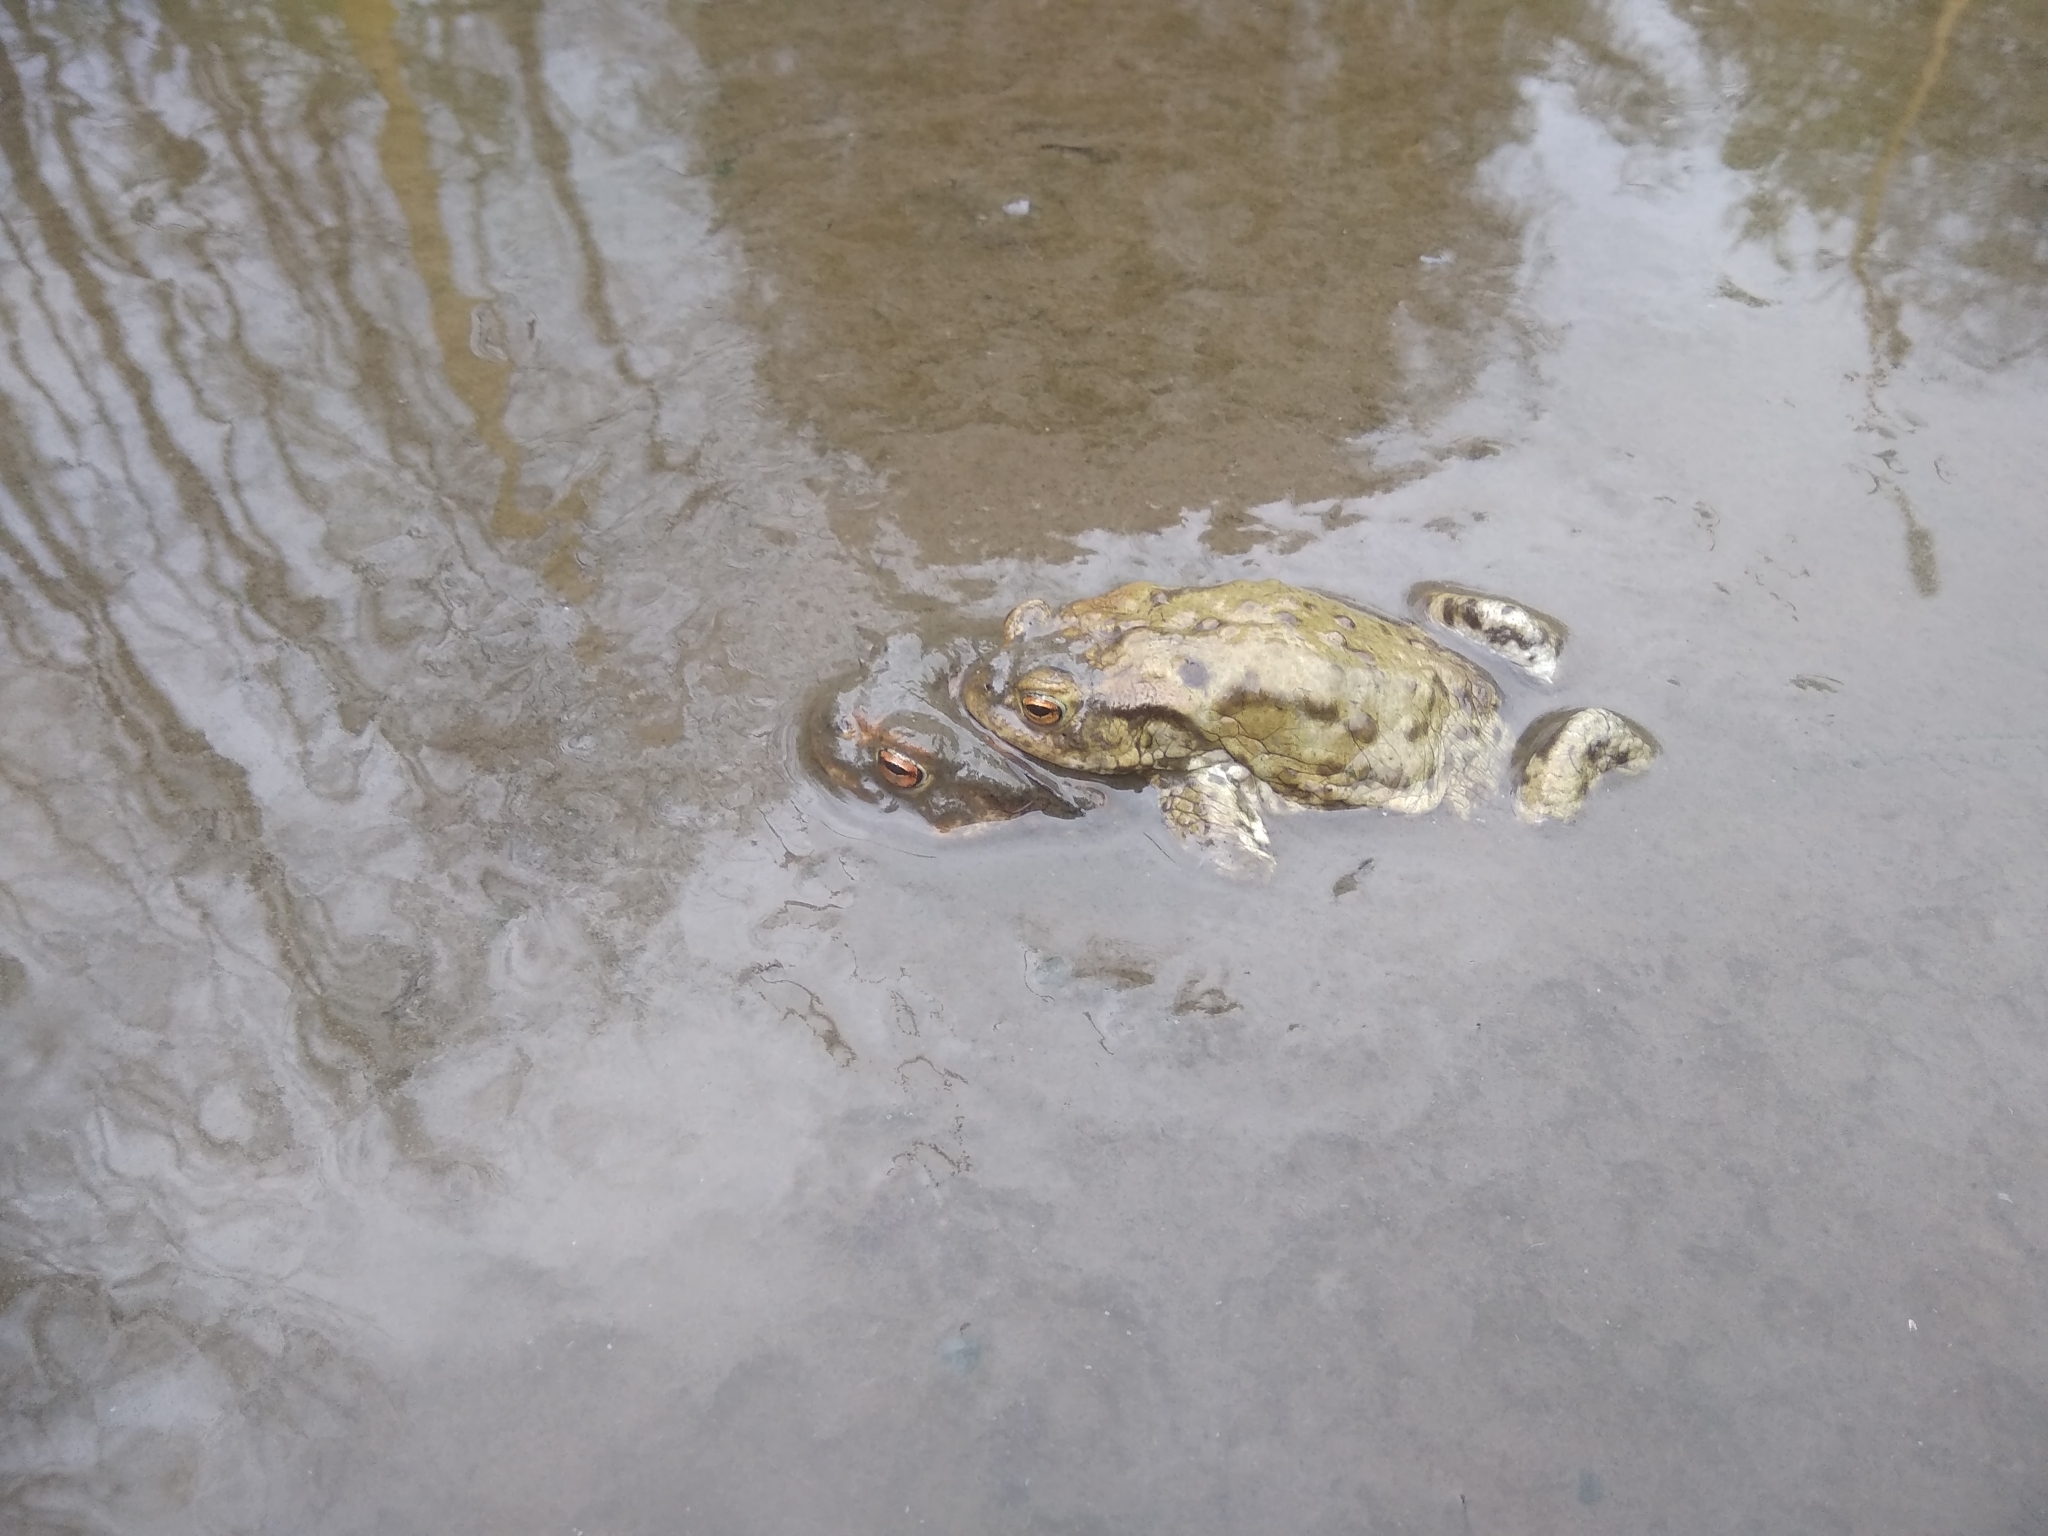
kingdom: Animalia
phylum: Chordata
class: Amphibia
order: Anura
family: Bufonidae
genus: Bufo
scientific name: Bufo bufo
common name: Common toad
